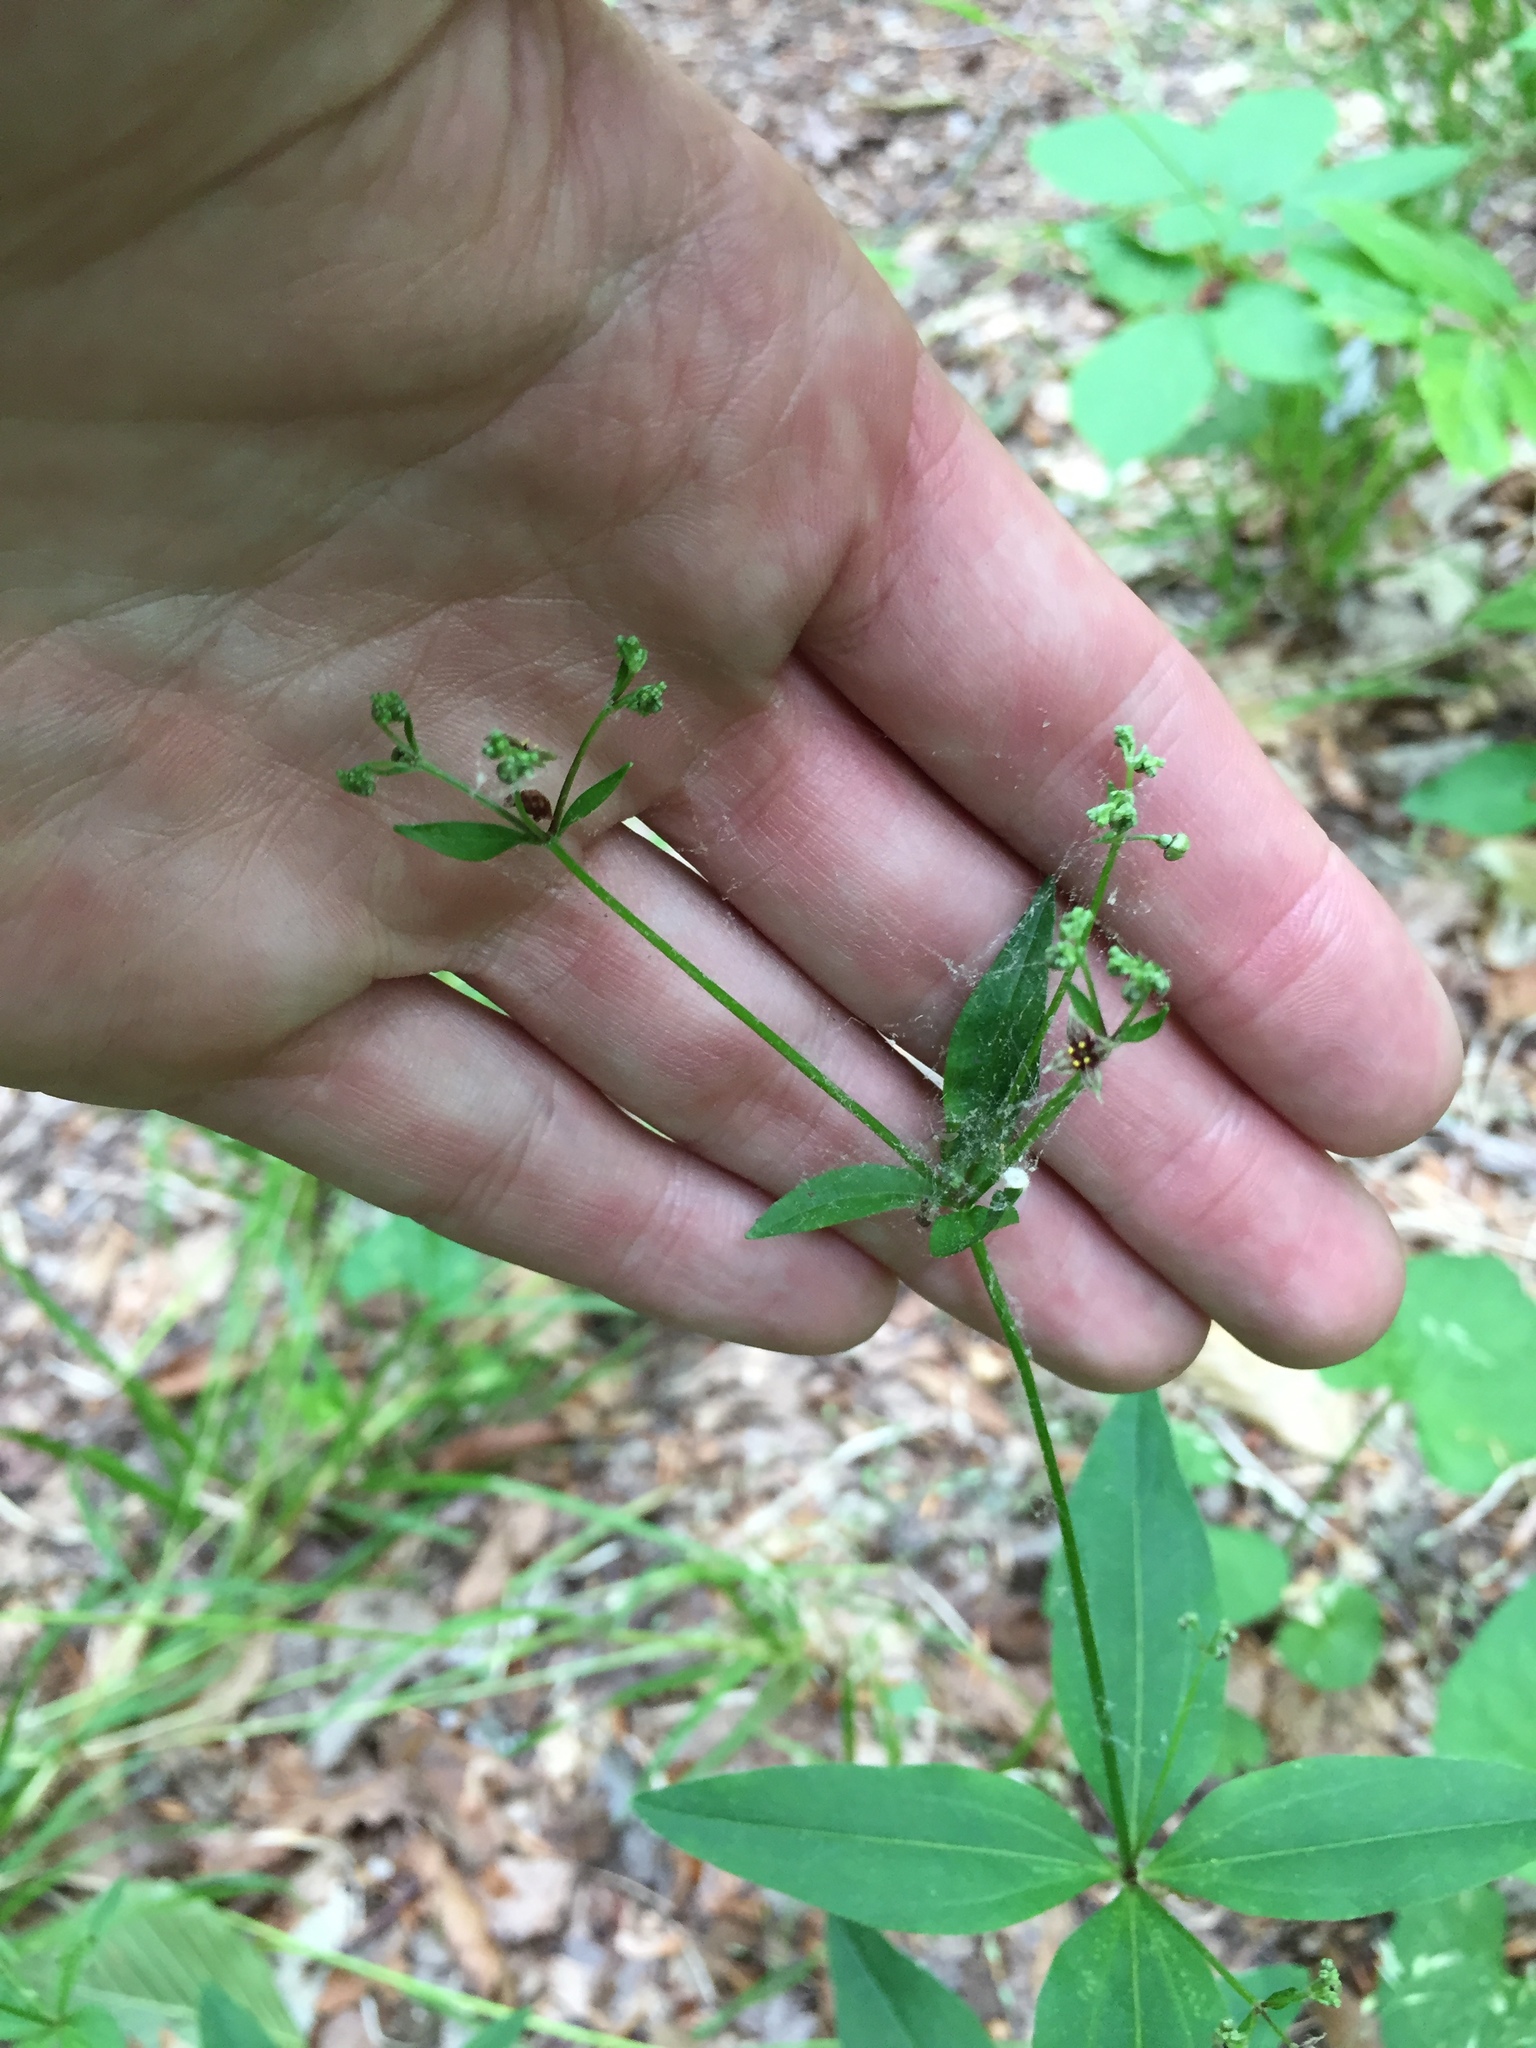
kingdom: Plantae
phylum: Tracheophyta
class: Magnoliopsida
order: Gentianales
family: Rubiaceae
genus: Galium
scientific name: Galium lanceolatum
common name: Lance-leaved wild licorice
